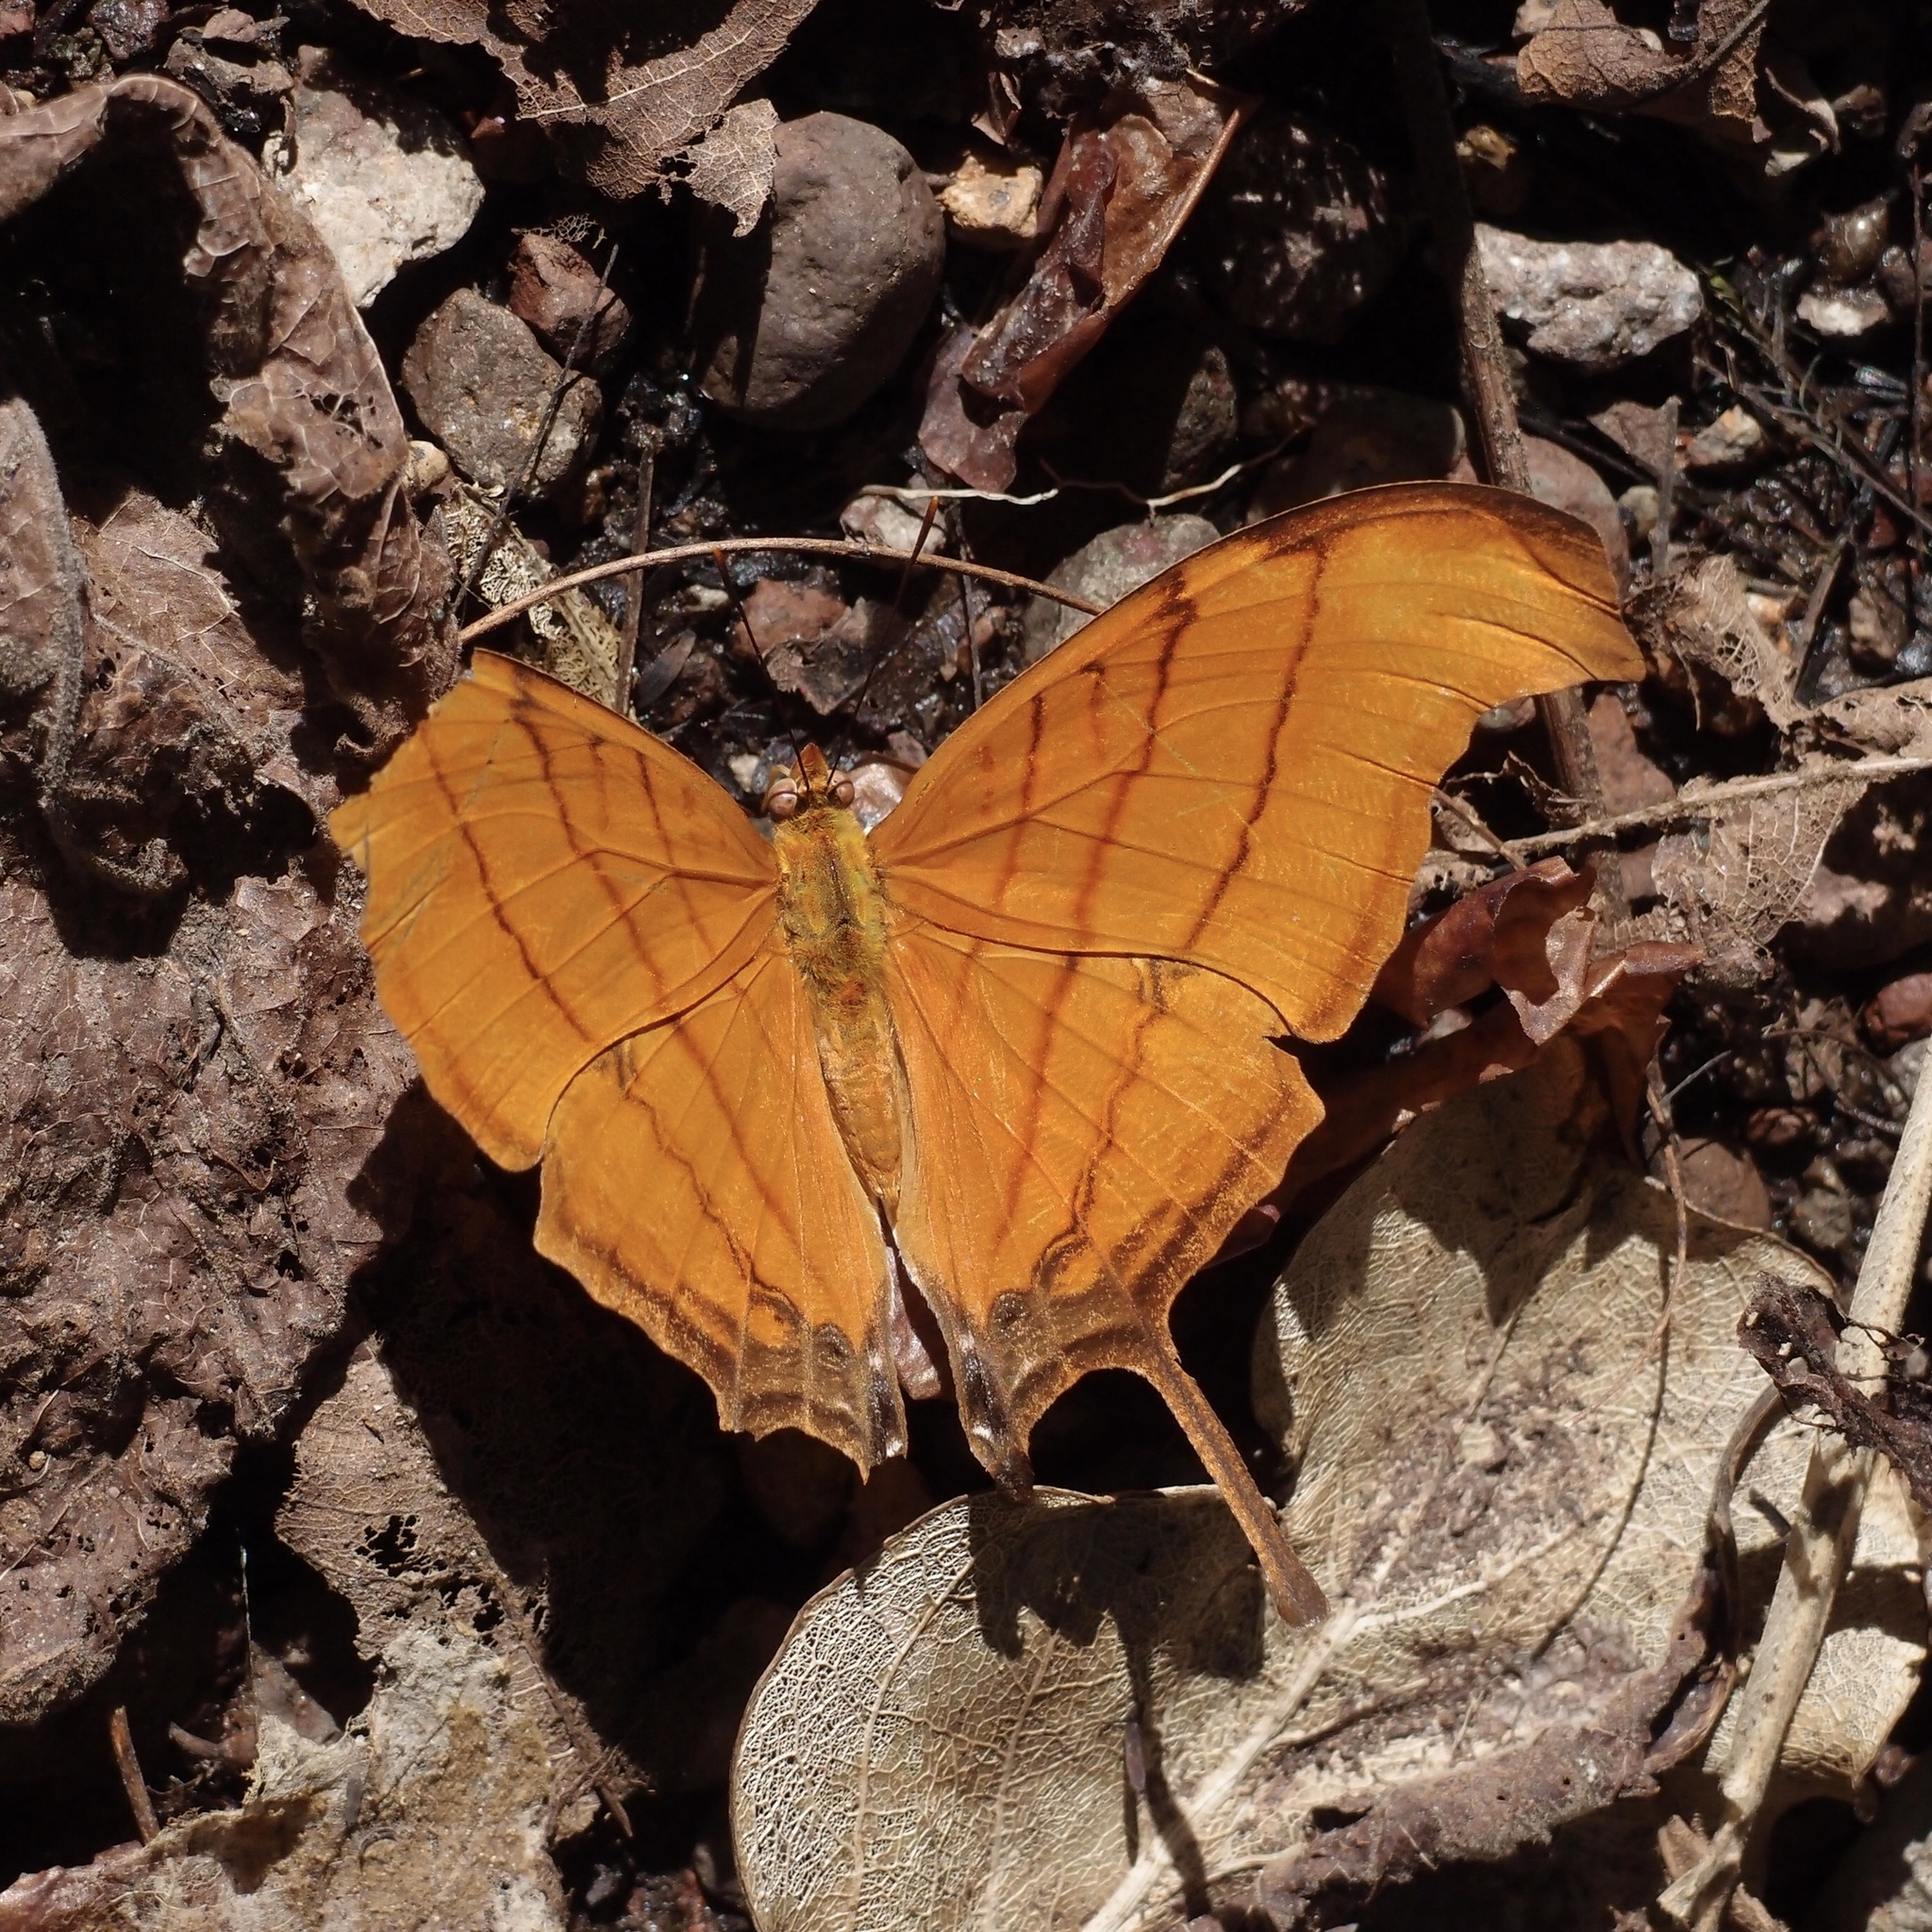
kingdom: Animalia
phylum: Arthropoda
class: Insecta
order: Lepidoptera
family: Nymphalidae
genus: Marpesia
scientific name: Marpesia petreus
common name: Red dagger wing
